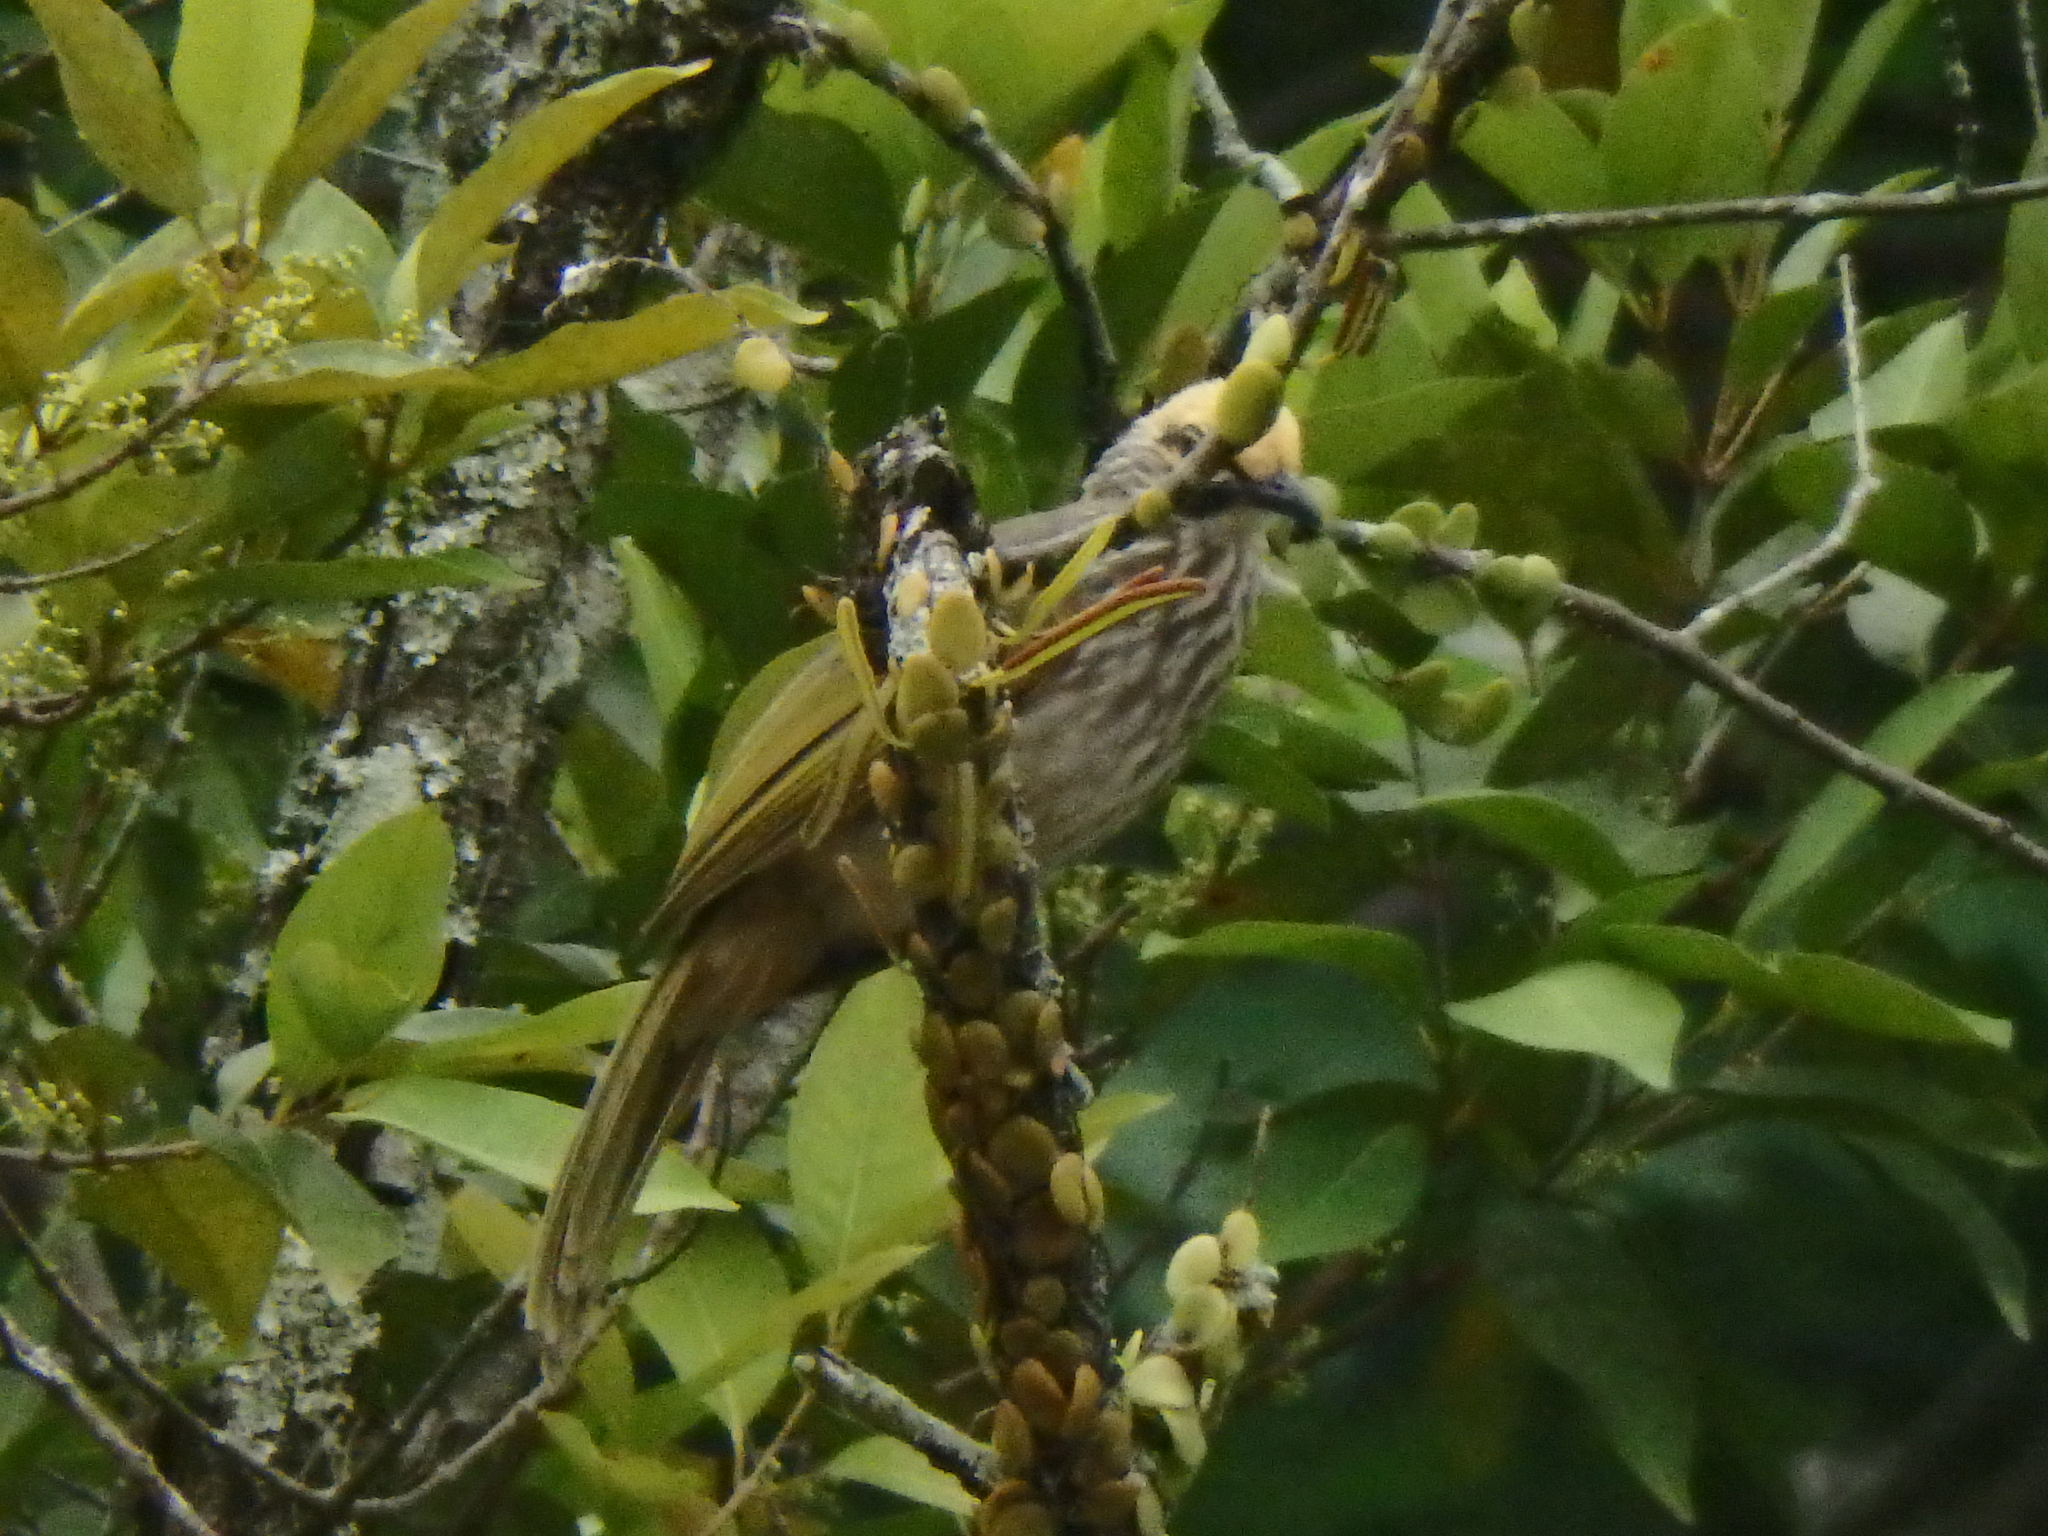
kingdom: Animalia
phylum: Chordata
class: Aves
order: Passeriformes
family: Pycnonotidae
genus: Pycnonotus
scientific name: Pycnonotus zeylanicus
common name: Straw-headed bulbul
